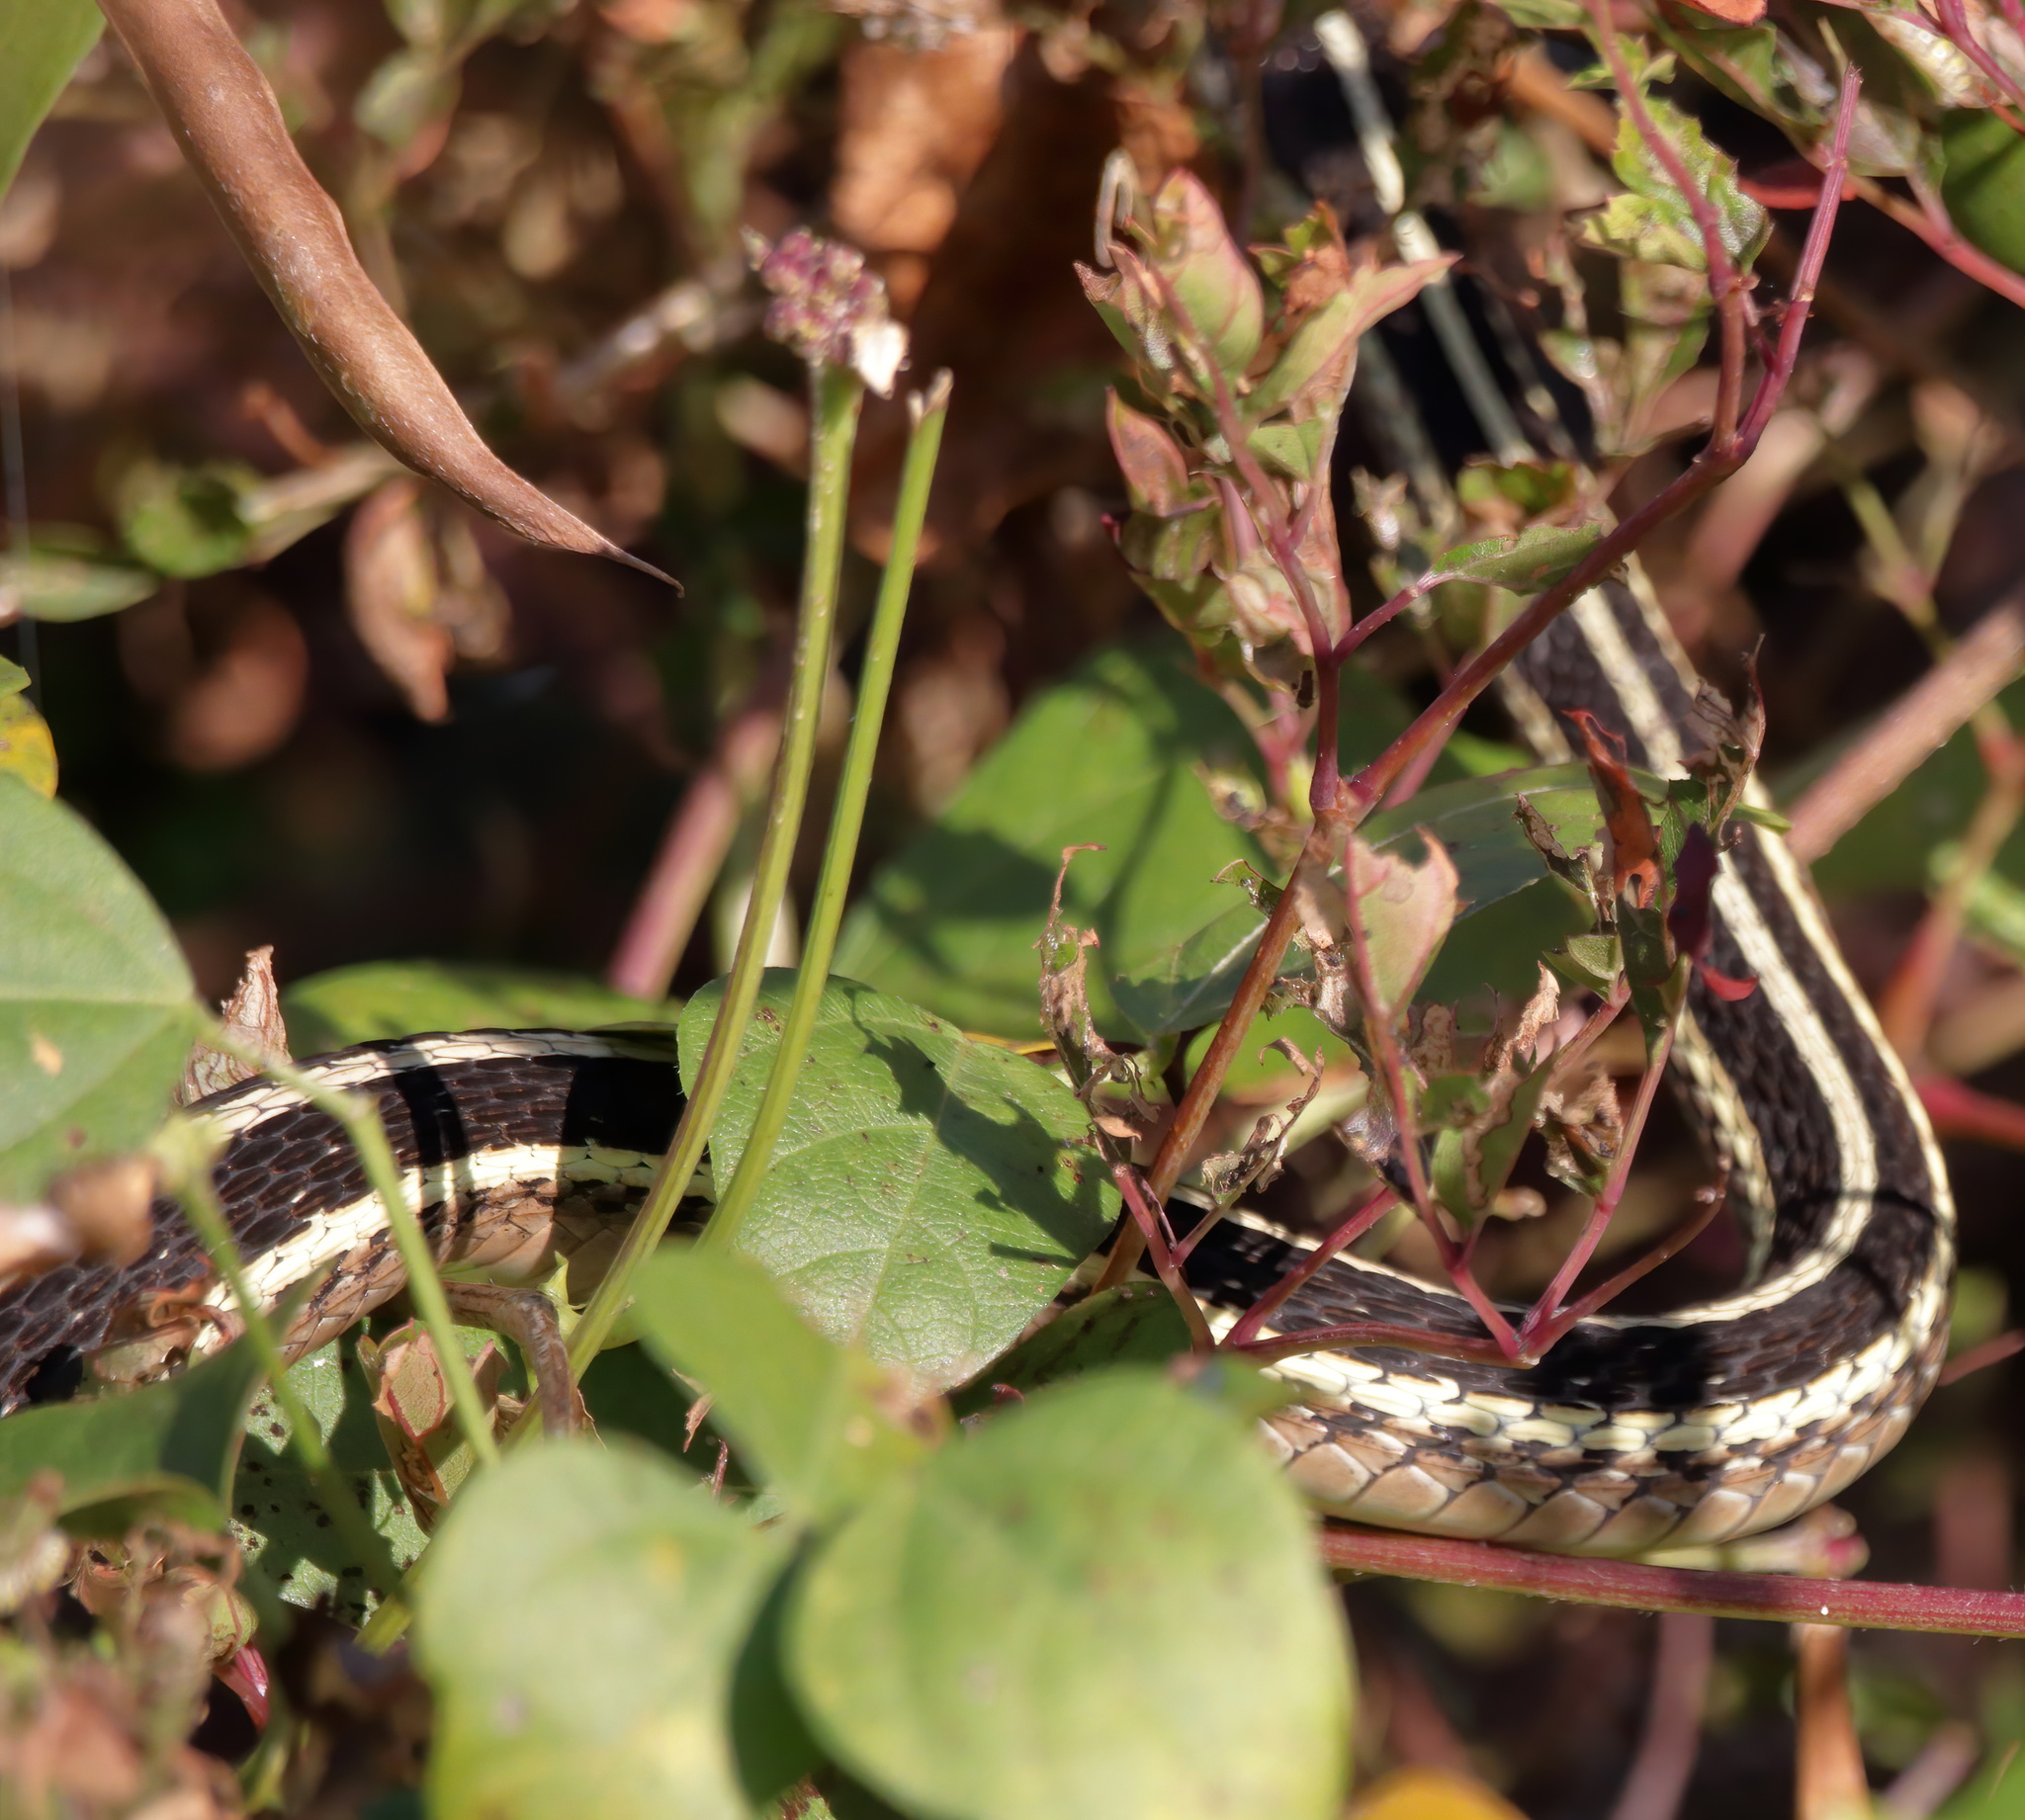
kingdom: Animalia
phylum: Chordata
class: Squamata
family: Colubridae
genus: Thamnophis
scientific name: Thamnophis saurita
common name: Eastern ribbonsnake
